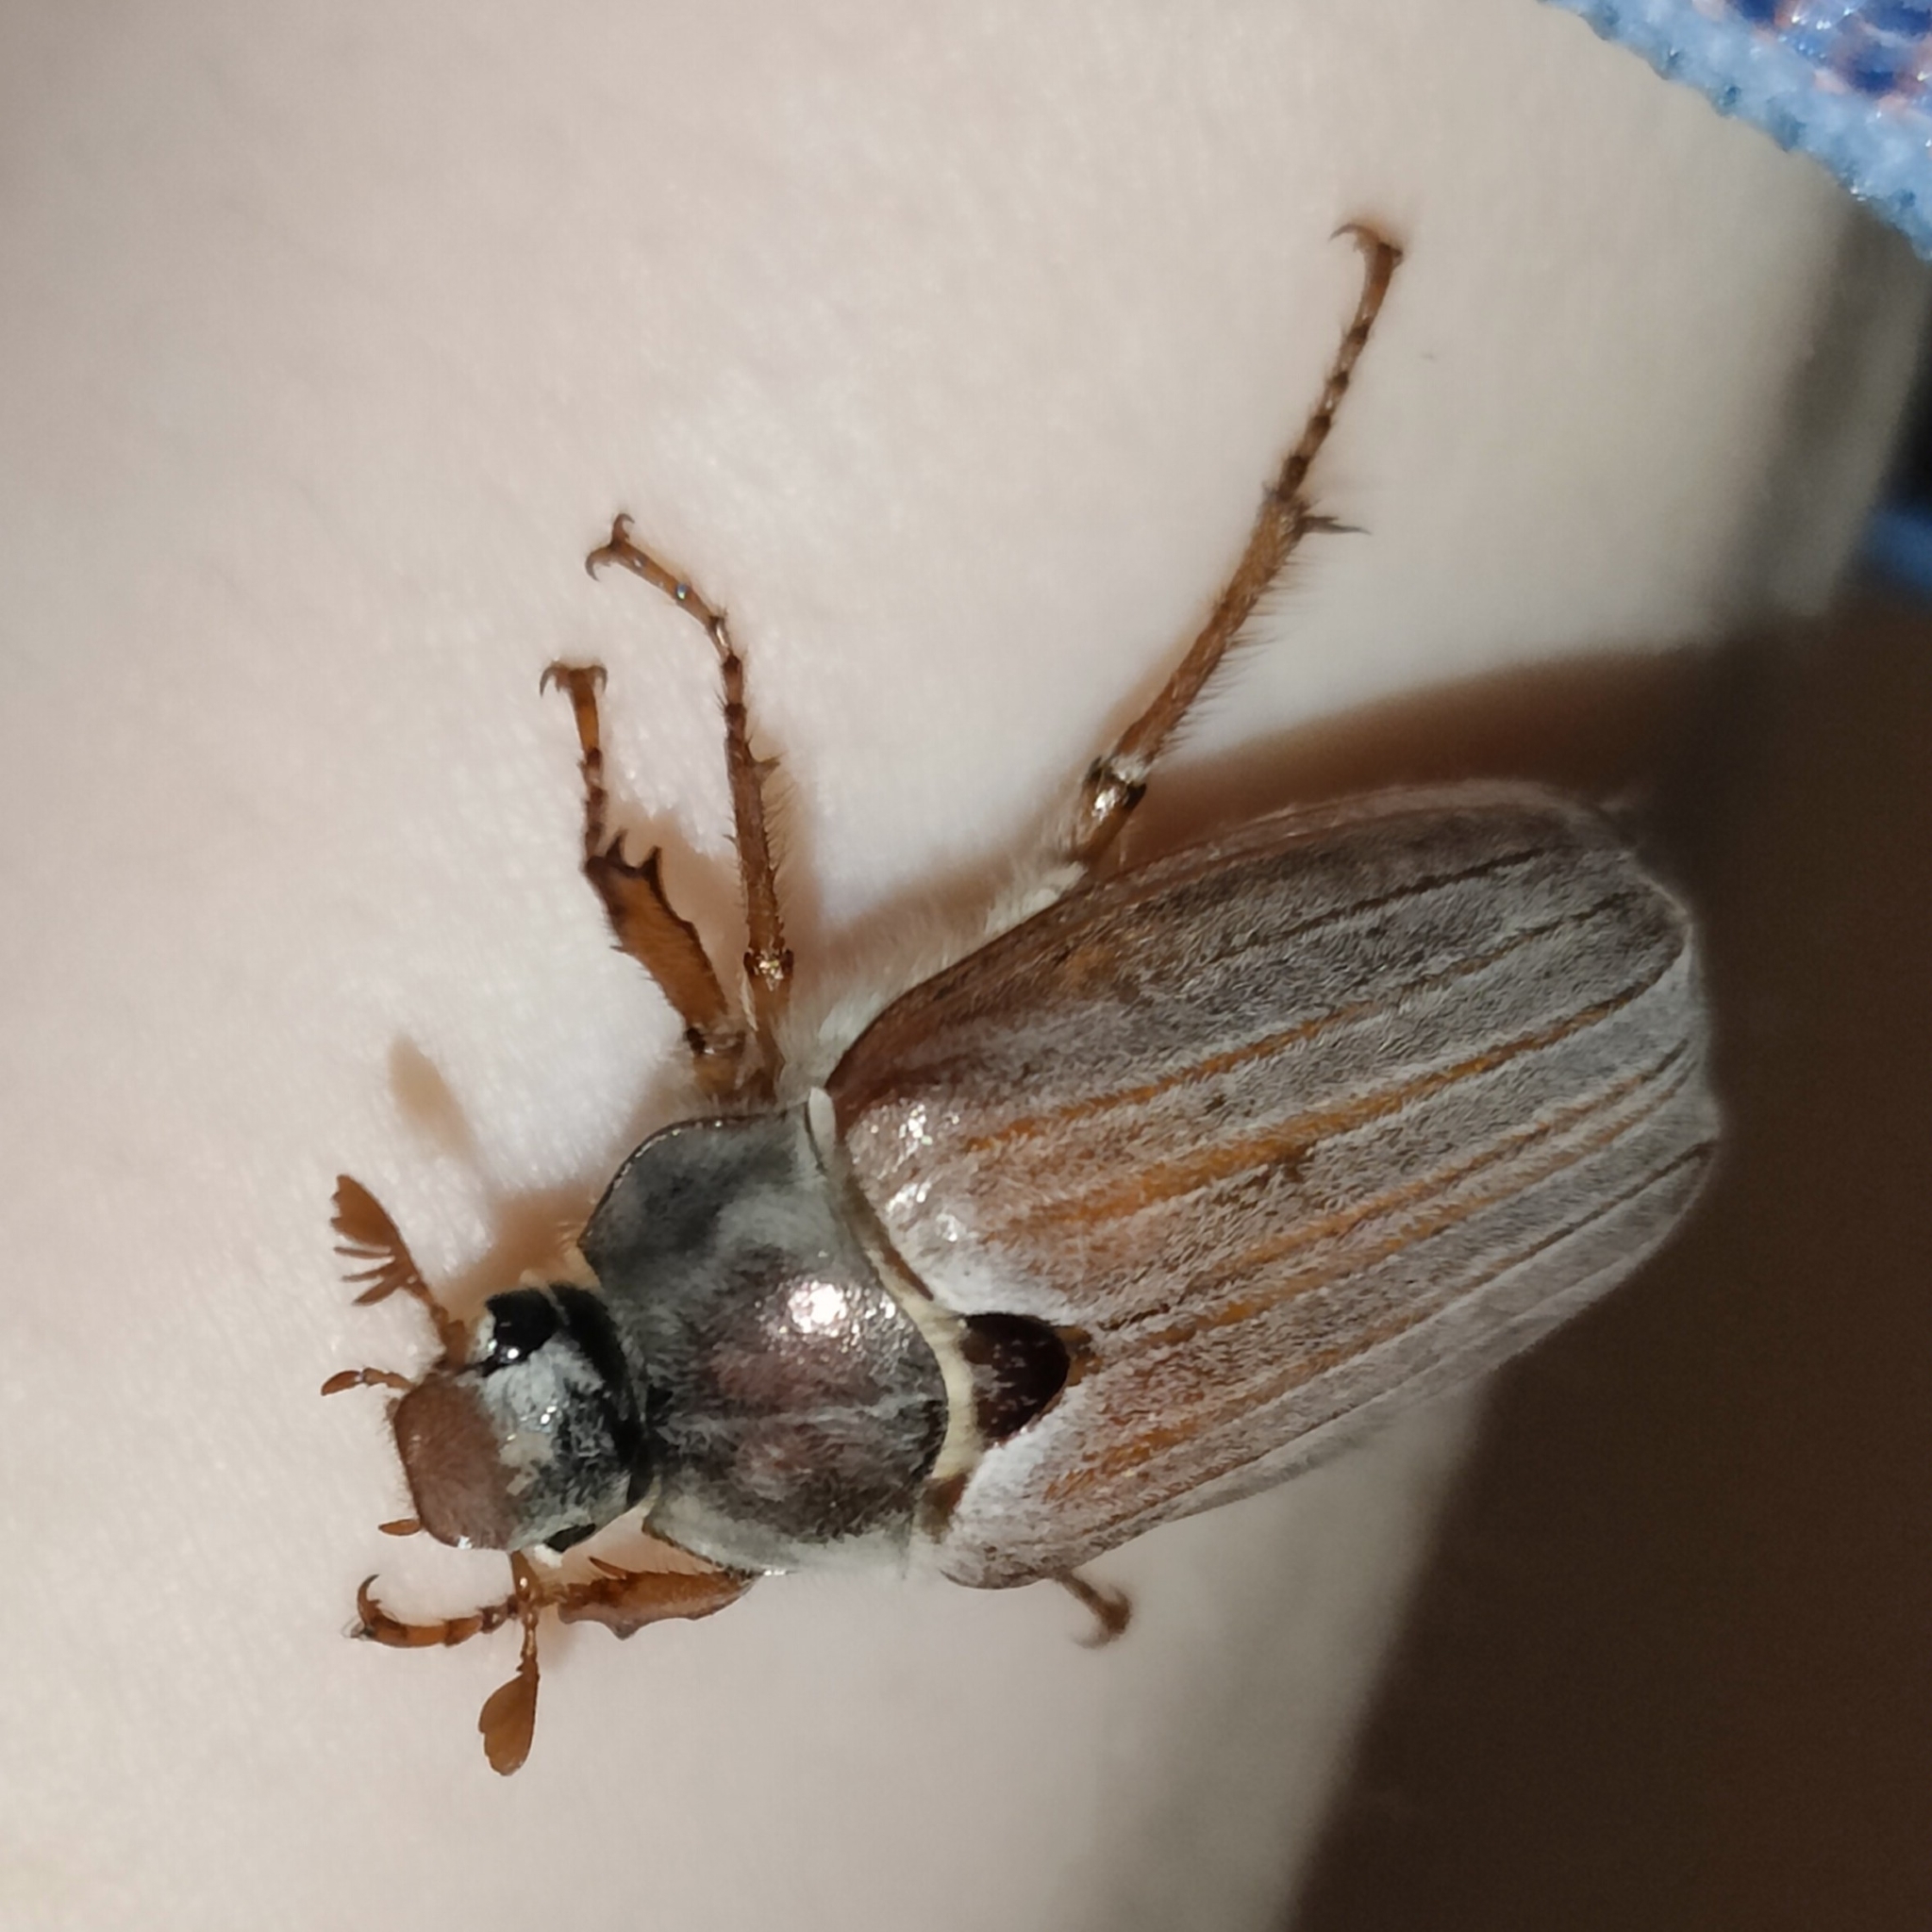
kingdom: Animalia
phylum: Arthropoda
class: Insecta
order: Coleoptera
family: Scarabaeidae
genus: Melolontha
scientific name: Melolontha melolontha
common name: Cockchafer maybeetle
